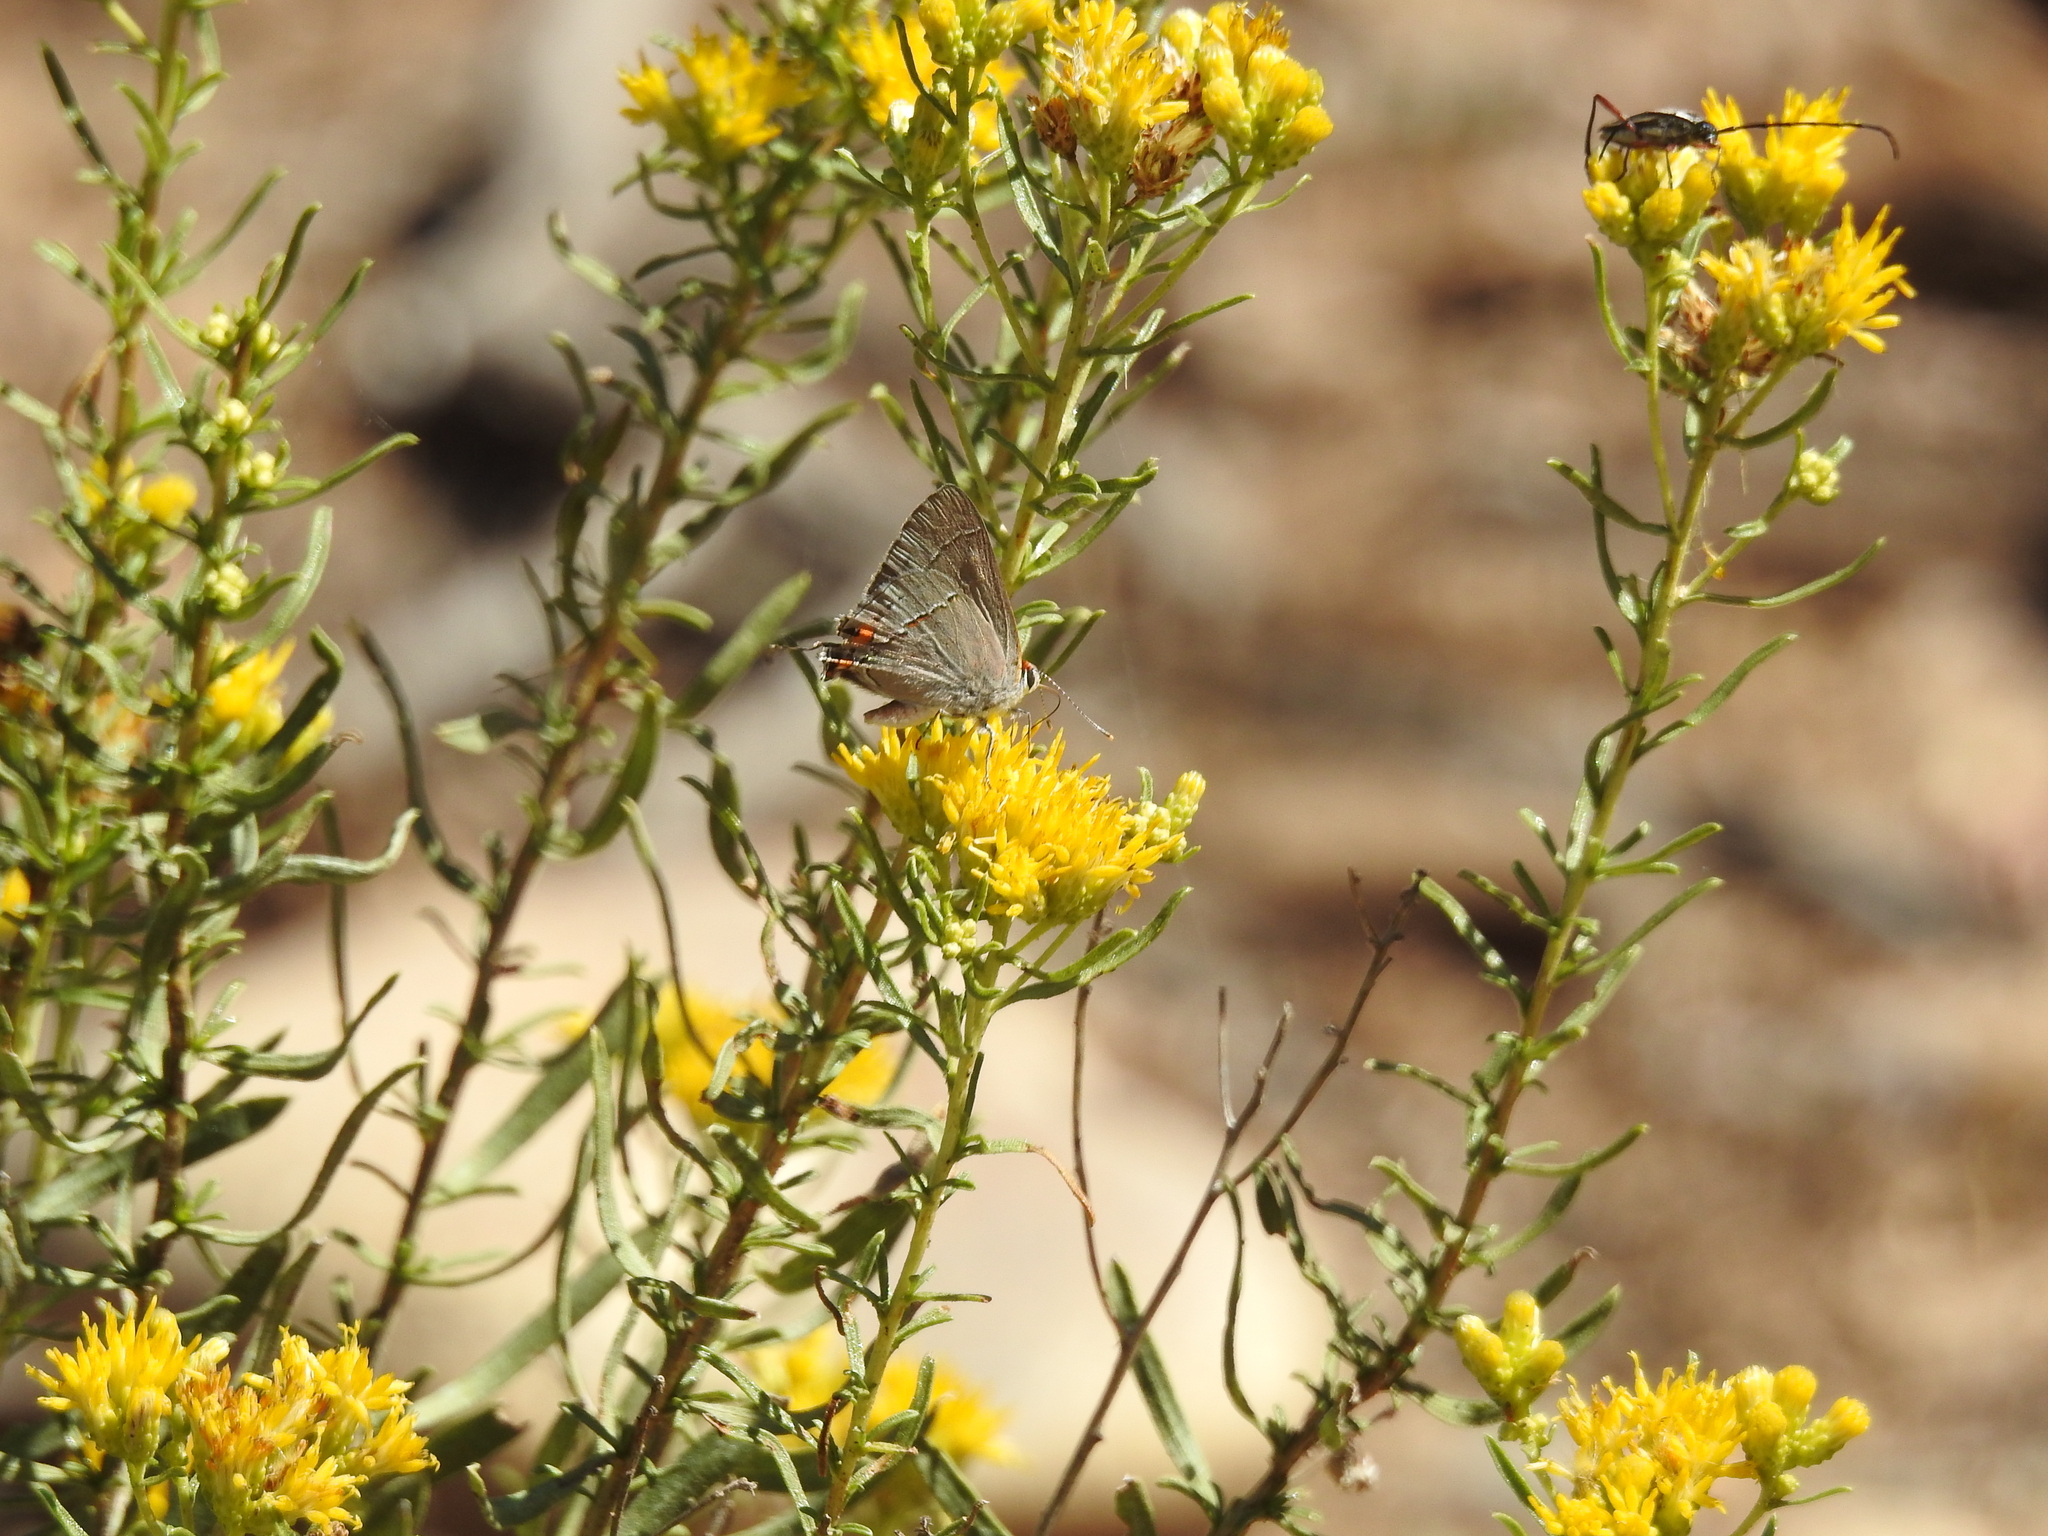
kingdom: Animalia
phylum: Arthropoda
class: Insecta
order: Lepidoptera
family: Lycaenidae
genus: Strymon
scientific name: Strymon melinus
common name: Gray hairstreak
